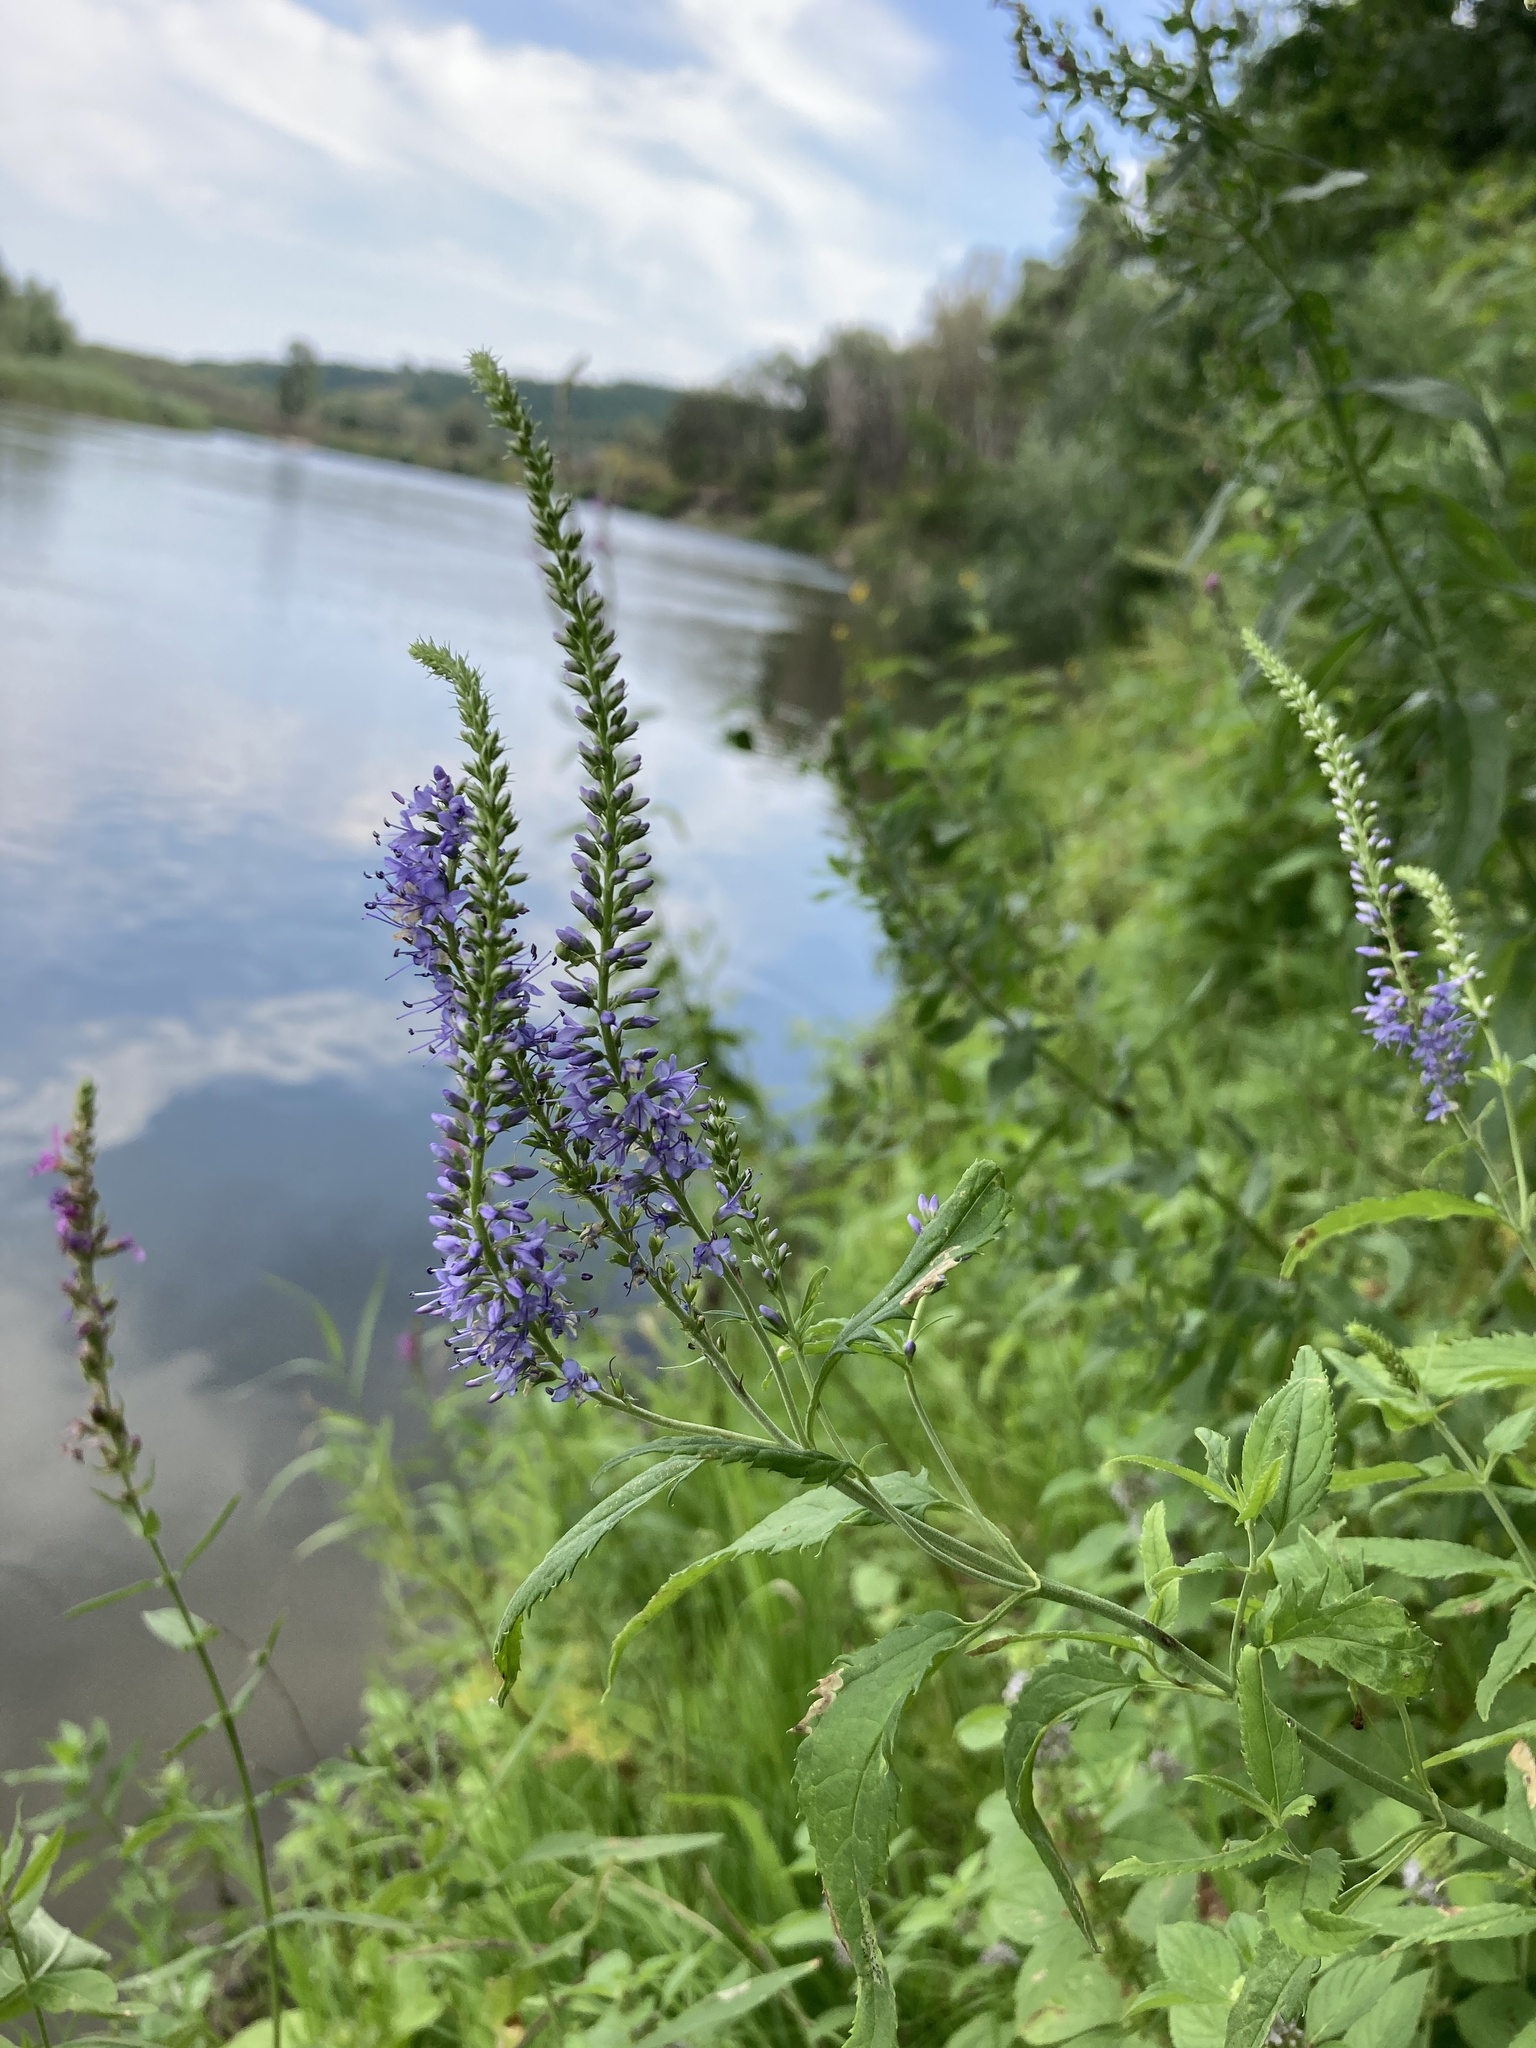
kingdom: Plantae
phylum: Tracheophyta
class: Magnoliopsida
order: Lamiales
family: Plantaginaceae
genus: Veronica
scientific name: Veronica longifolia
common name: Garden speedwell
